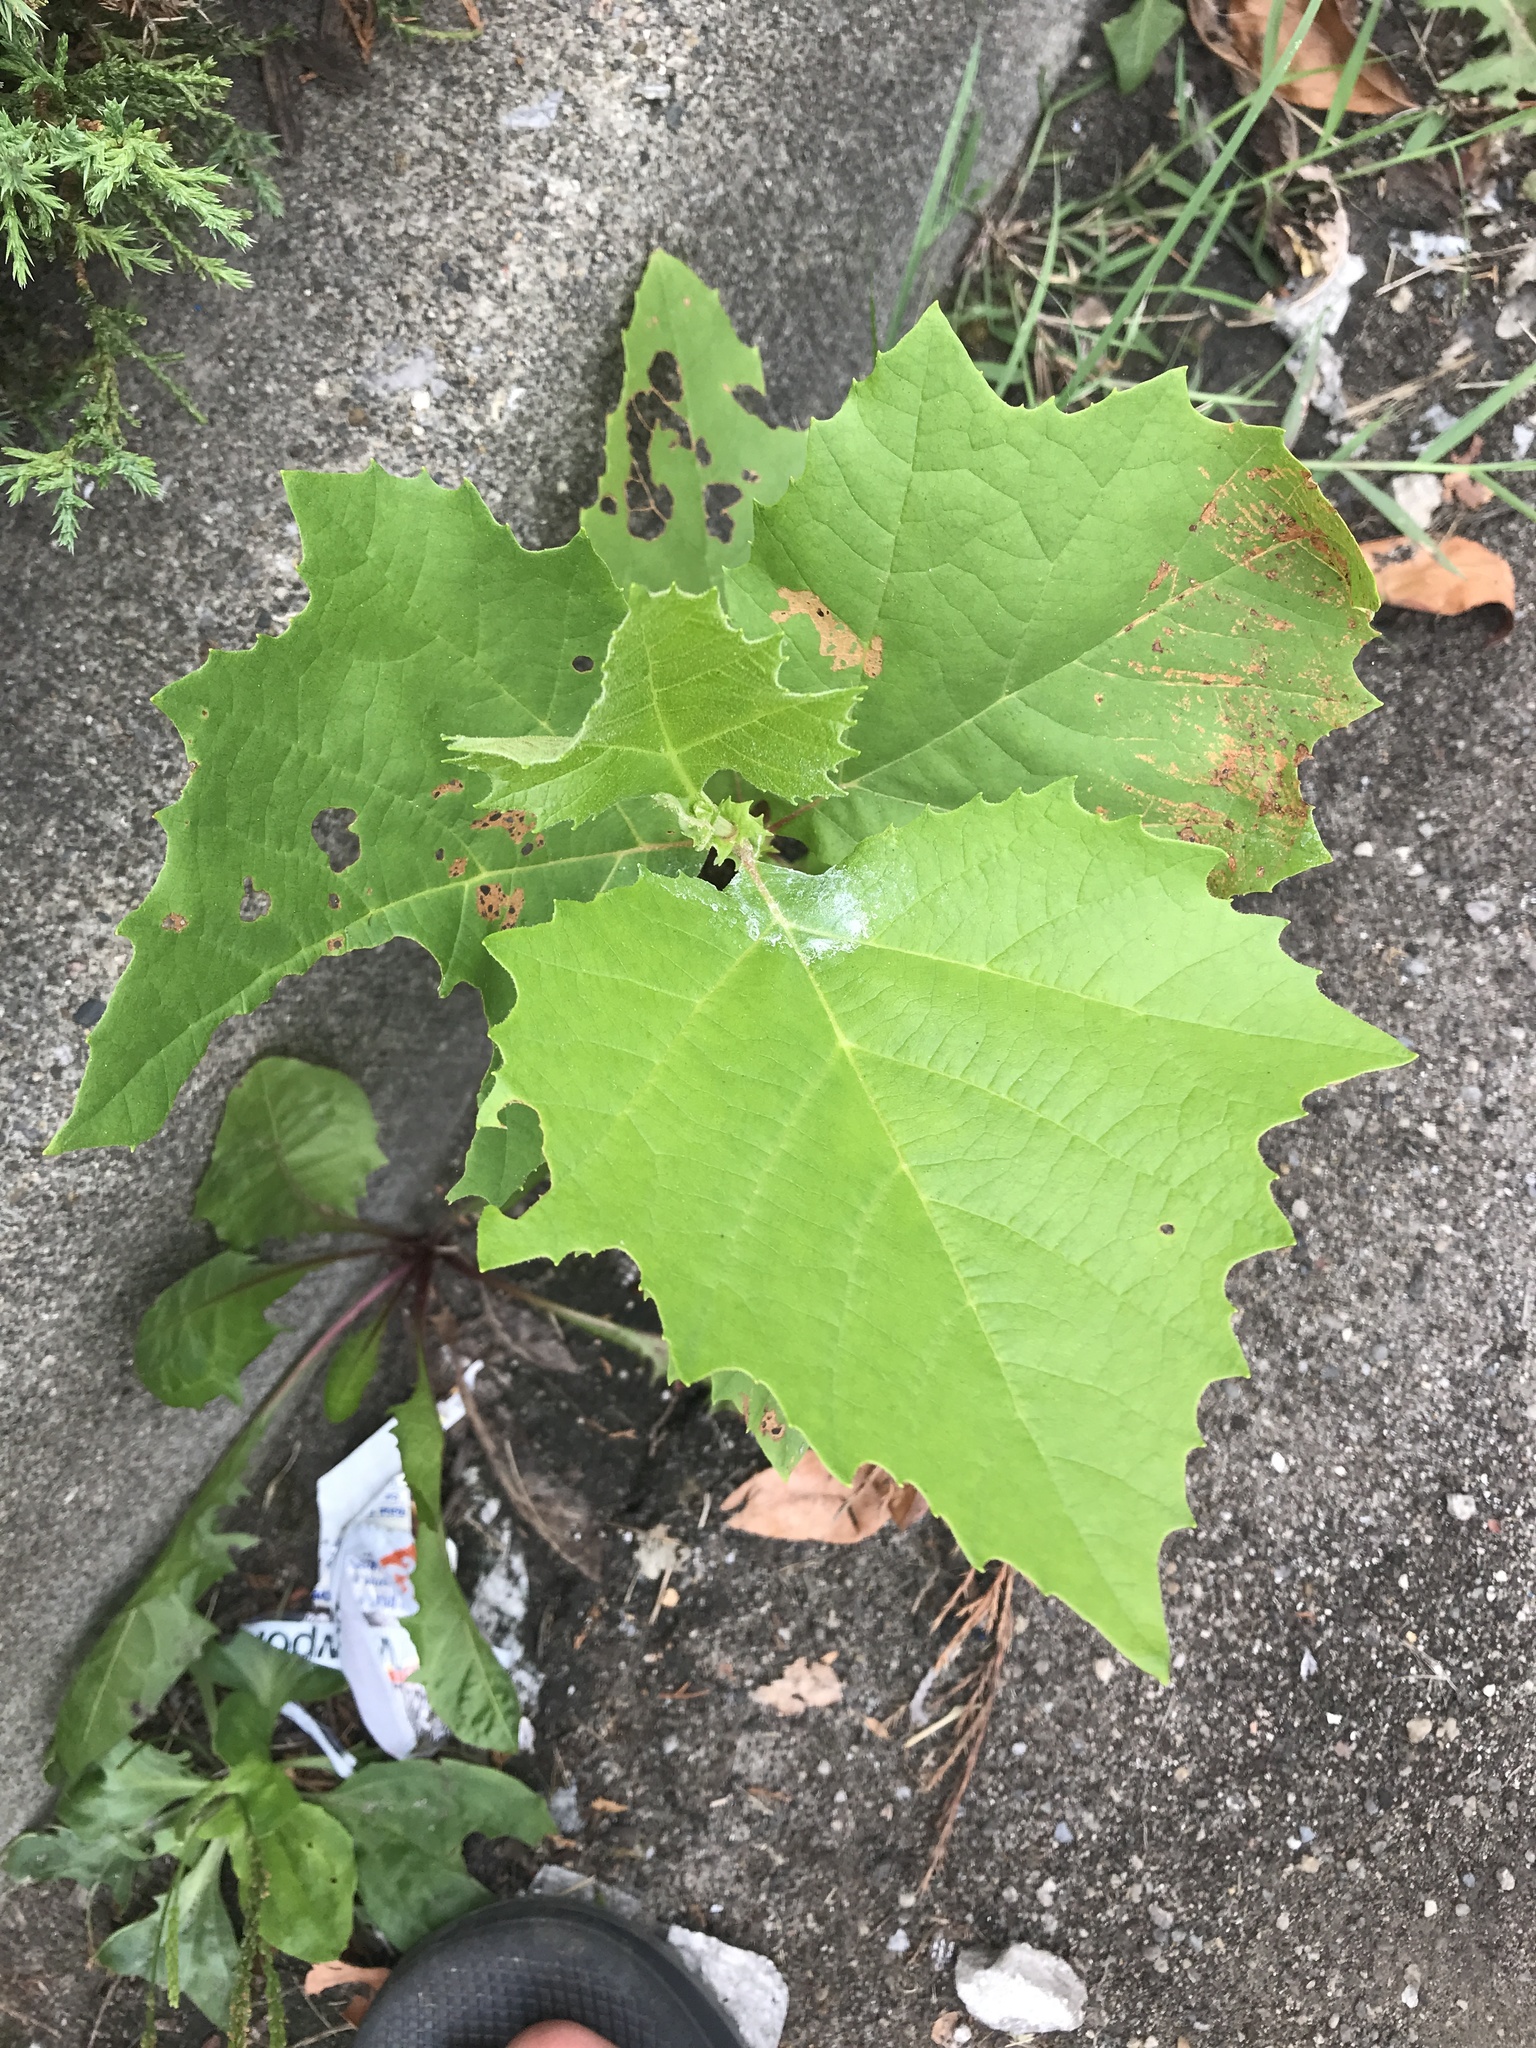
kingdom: Plantae
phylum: Tracheophyta
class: Magnoliopsida
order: Proteales
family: Platanaceae
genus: Platanus
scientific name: Platanus occidentalis
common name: American sycamore
